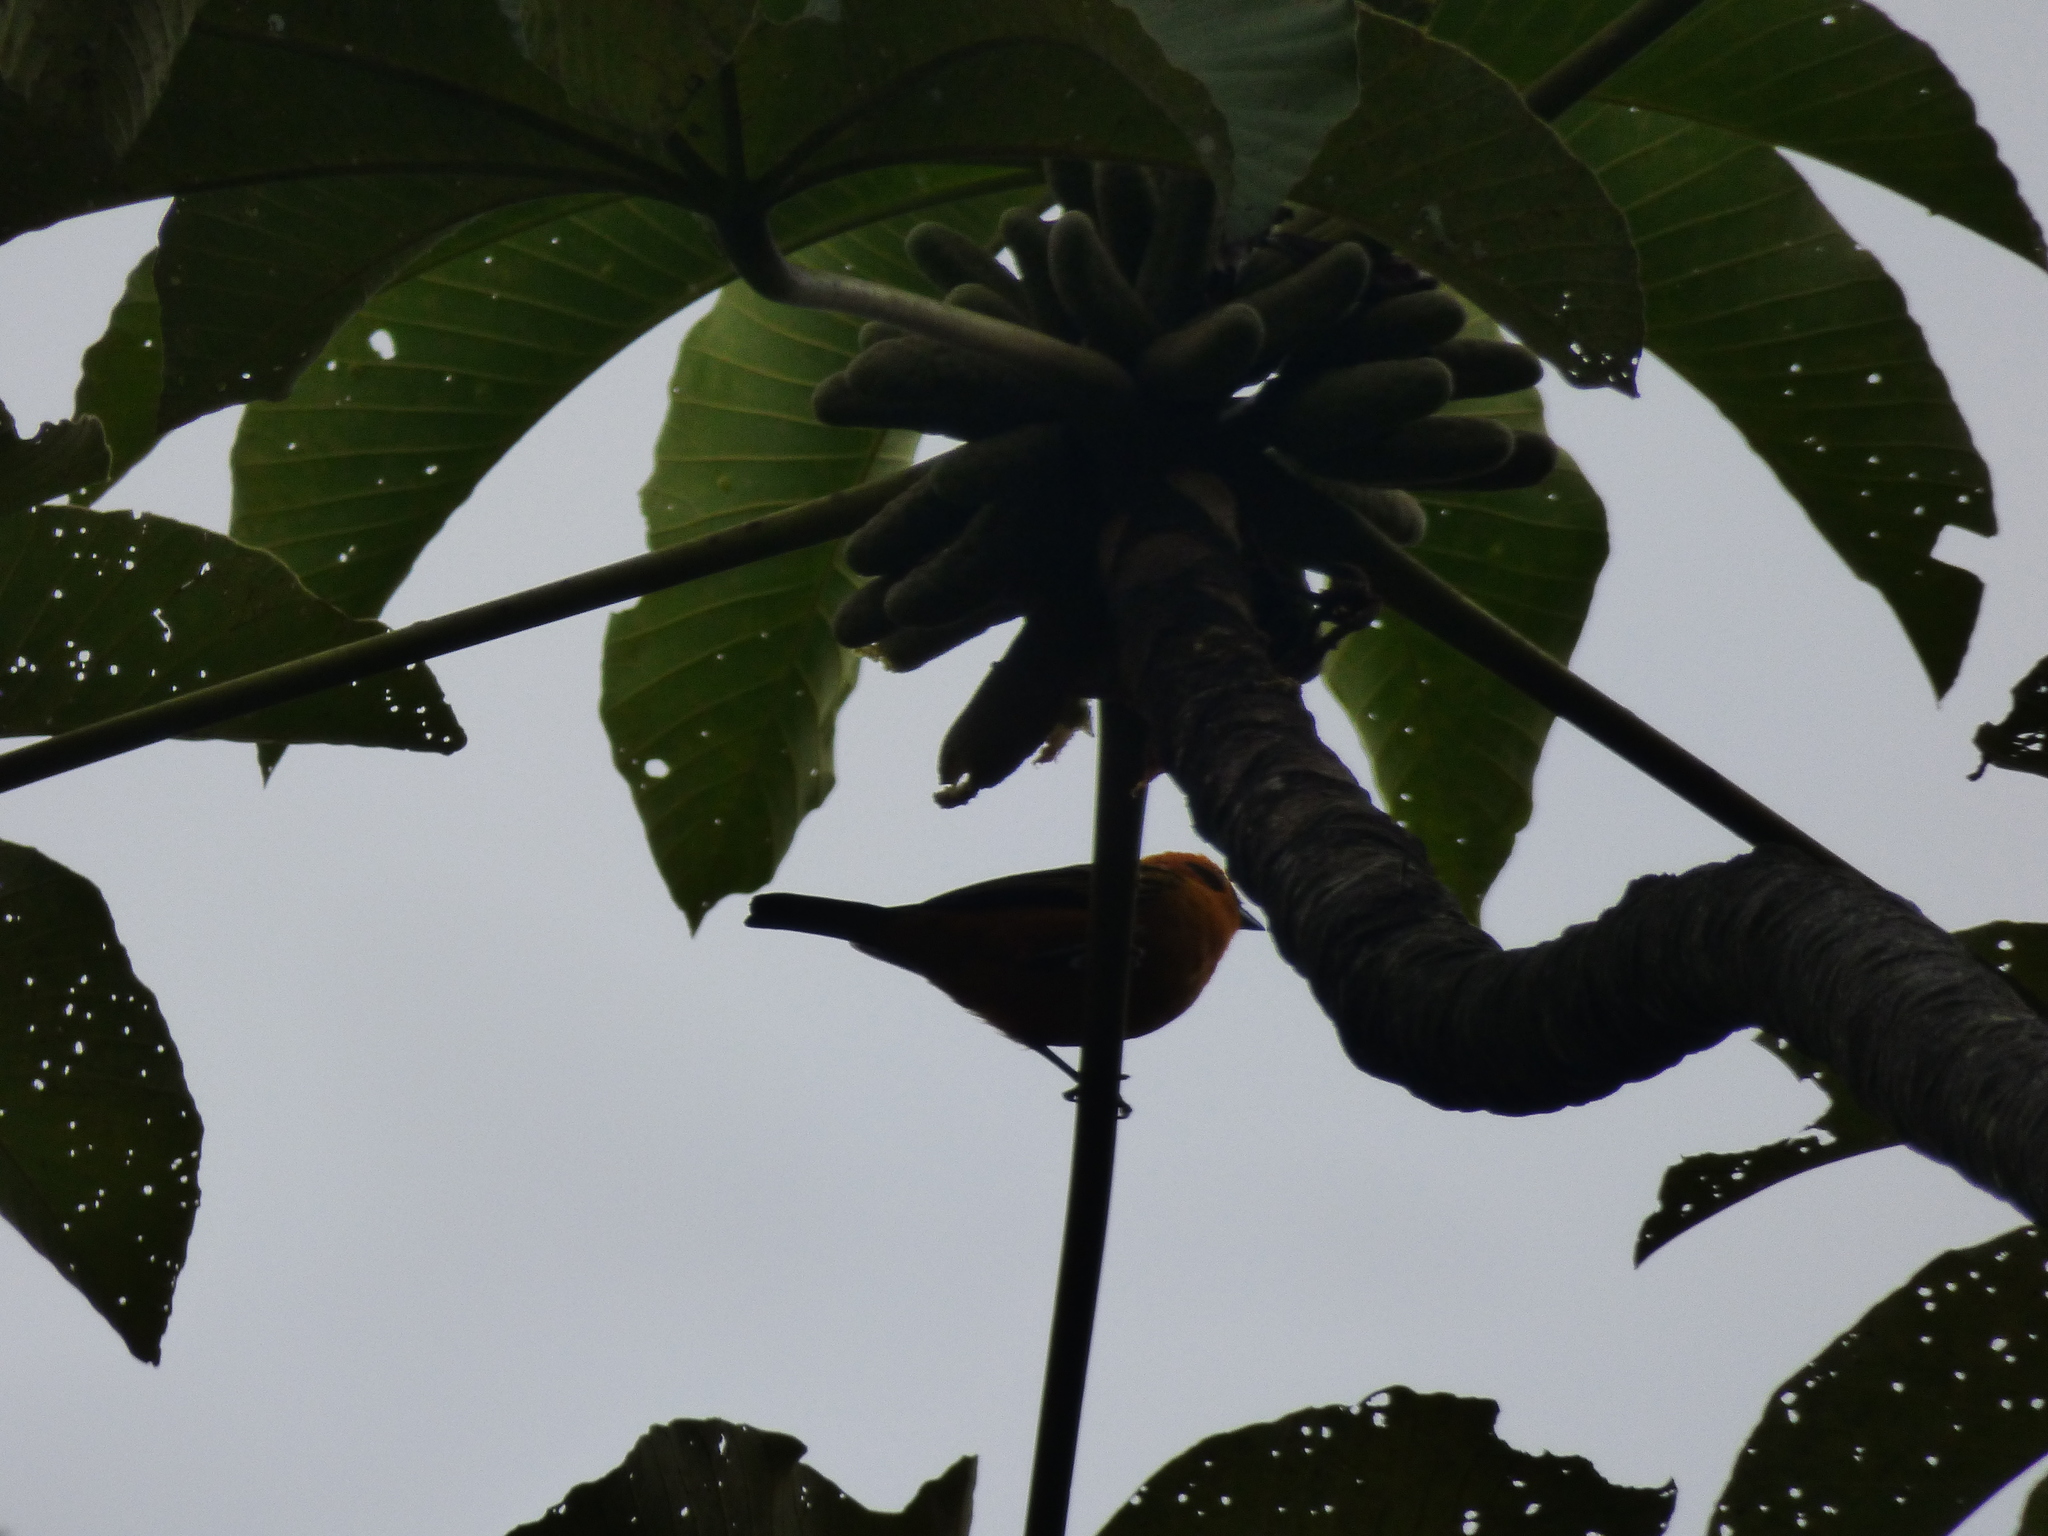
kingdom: Animalia
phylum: Chordata
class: Aves
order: Passeriformes
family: Thraupidae
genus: Tangara
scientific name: Tangara arthus
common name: Golden tanager
